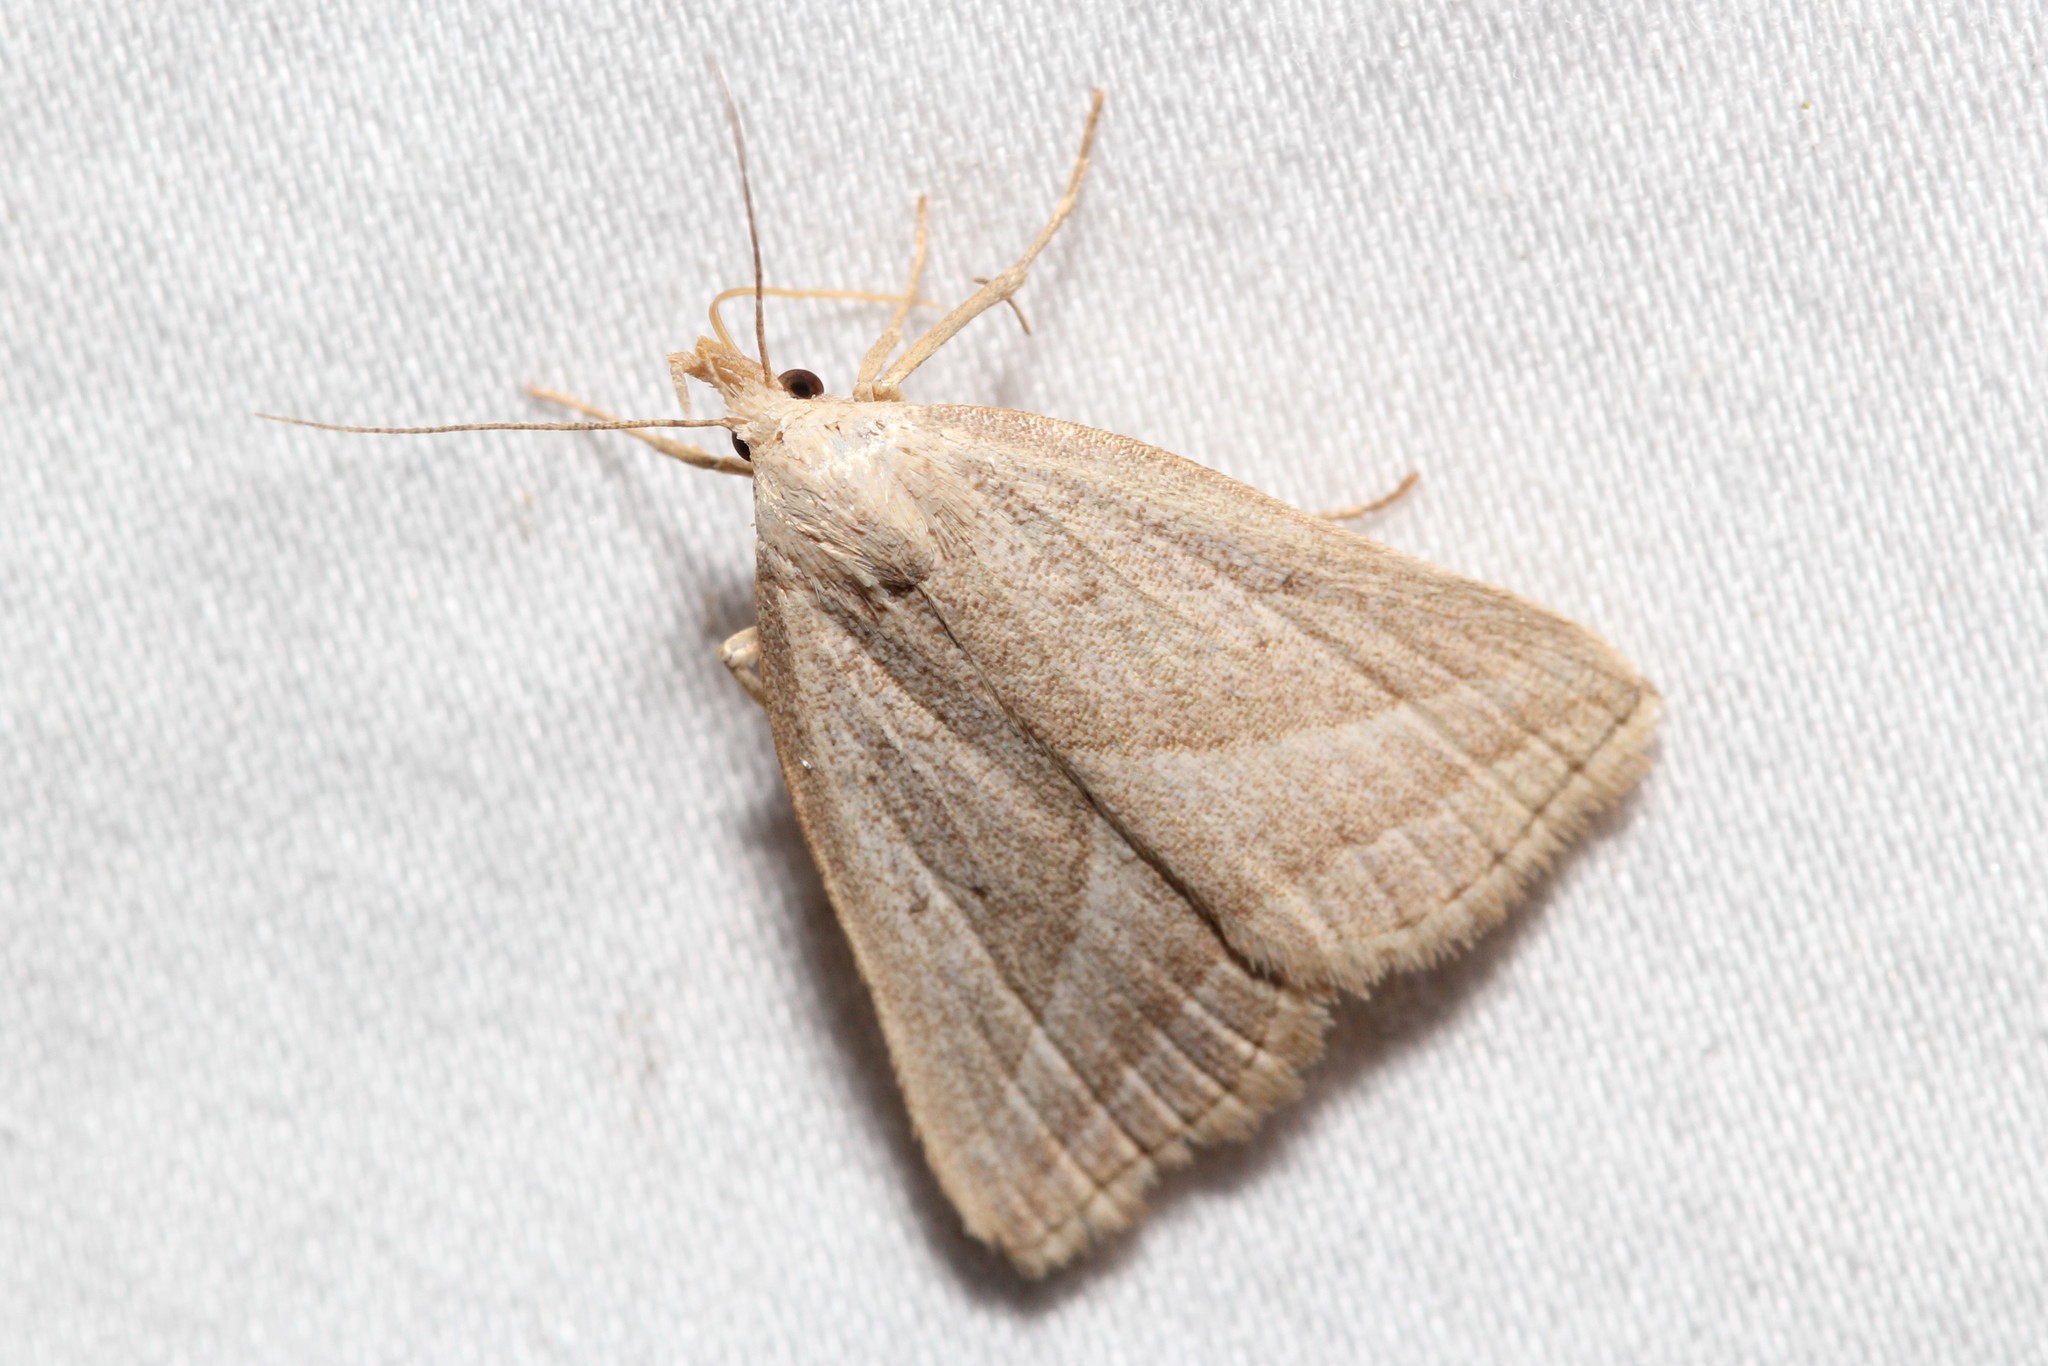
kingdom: Animalia
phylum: Arthropoda
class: Insecta
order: Lepidoptera
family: Erebidae
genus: Macrochilo
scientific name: Macrochilo absorptalis
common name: Slant-lined owlet
